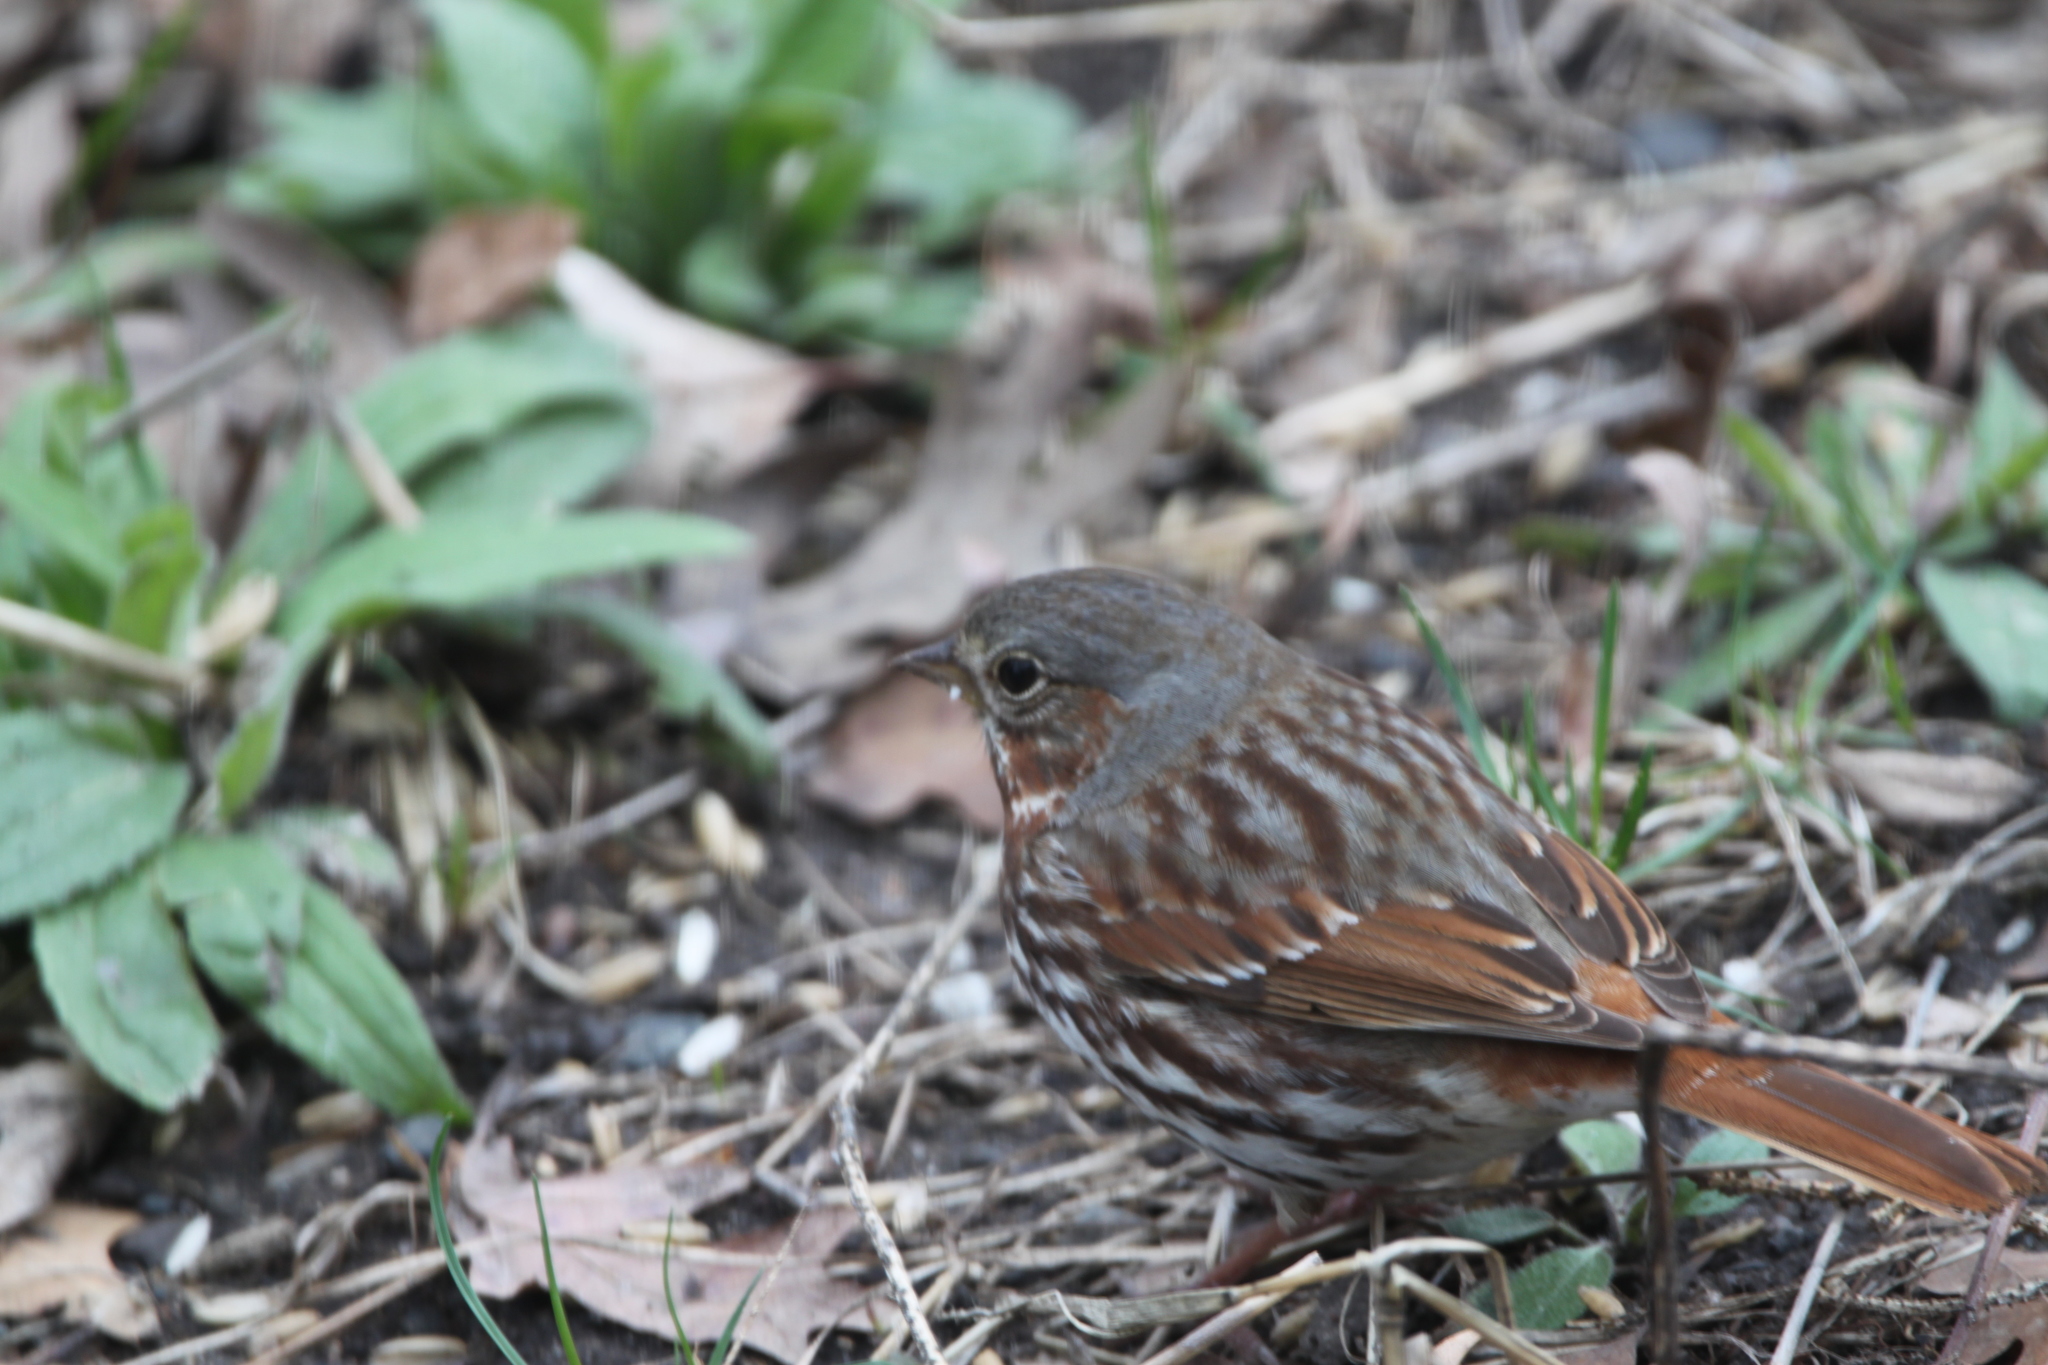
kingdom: Animalia
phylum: Chordata
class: Aves
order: Passeriformes
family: Passerellidae
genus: Passerella
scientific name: Passerella iliaca
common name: Fox sparrow
